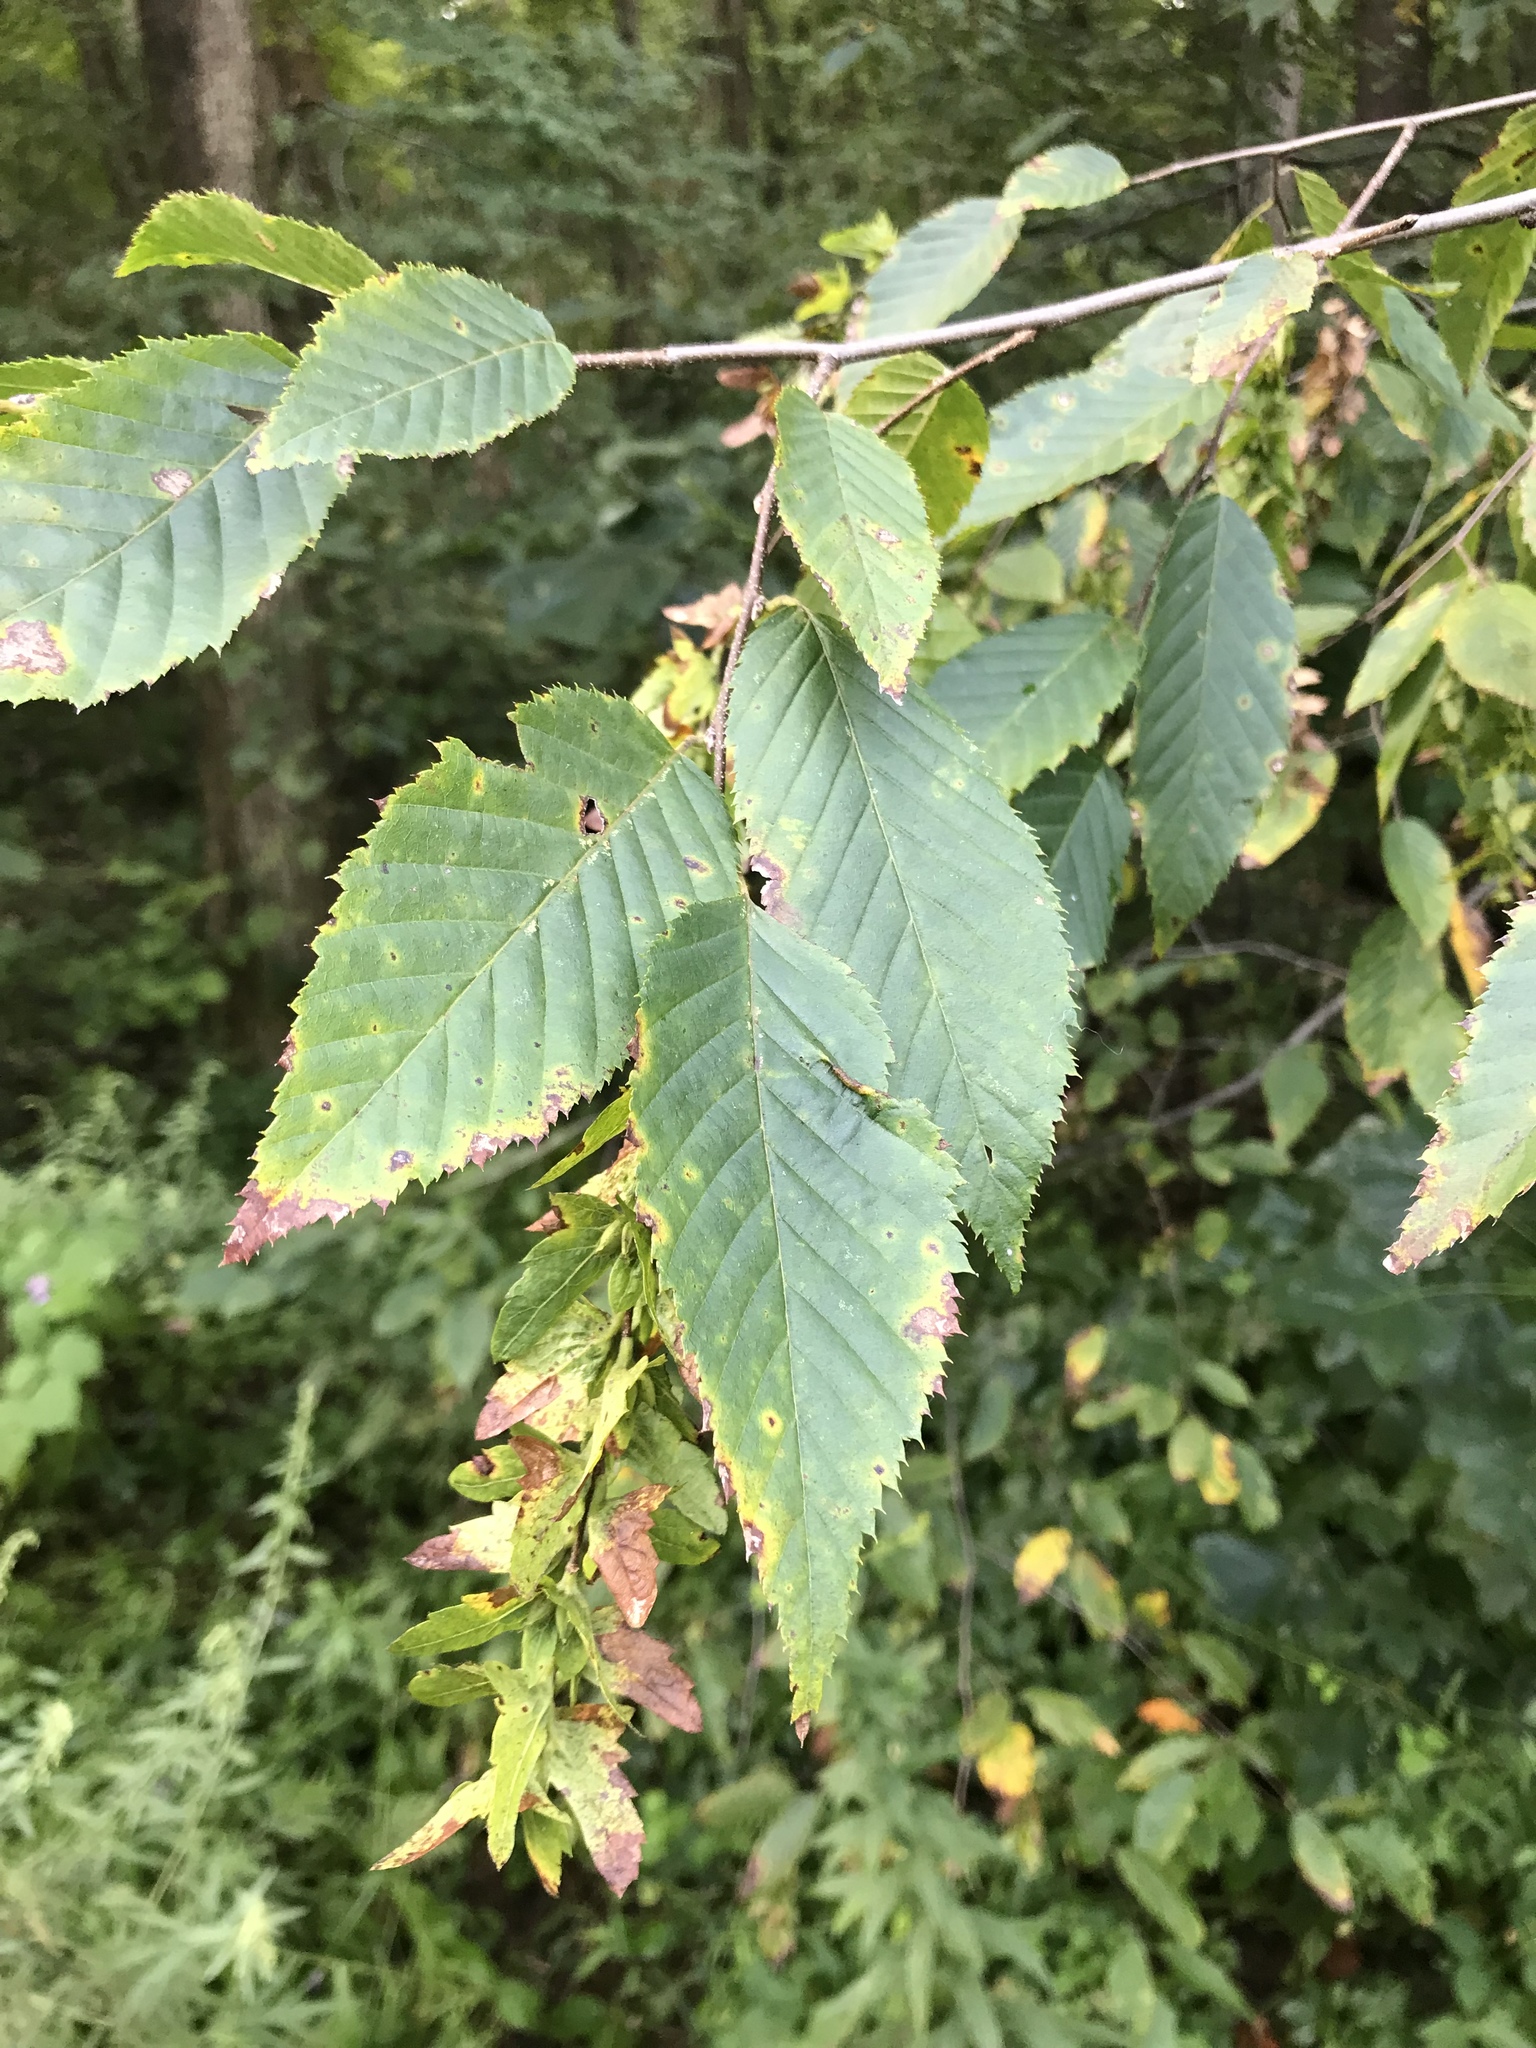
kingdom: Plantae
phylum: Tracheophyta
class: Magnoliopsida
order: Fagales
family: Betulaceae
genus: Carpinus
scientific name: Carpinus caroliniana
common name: American hornbeam
